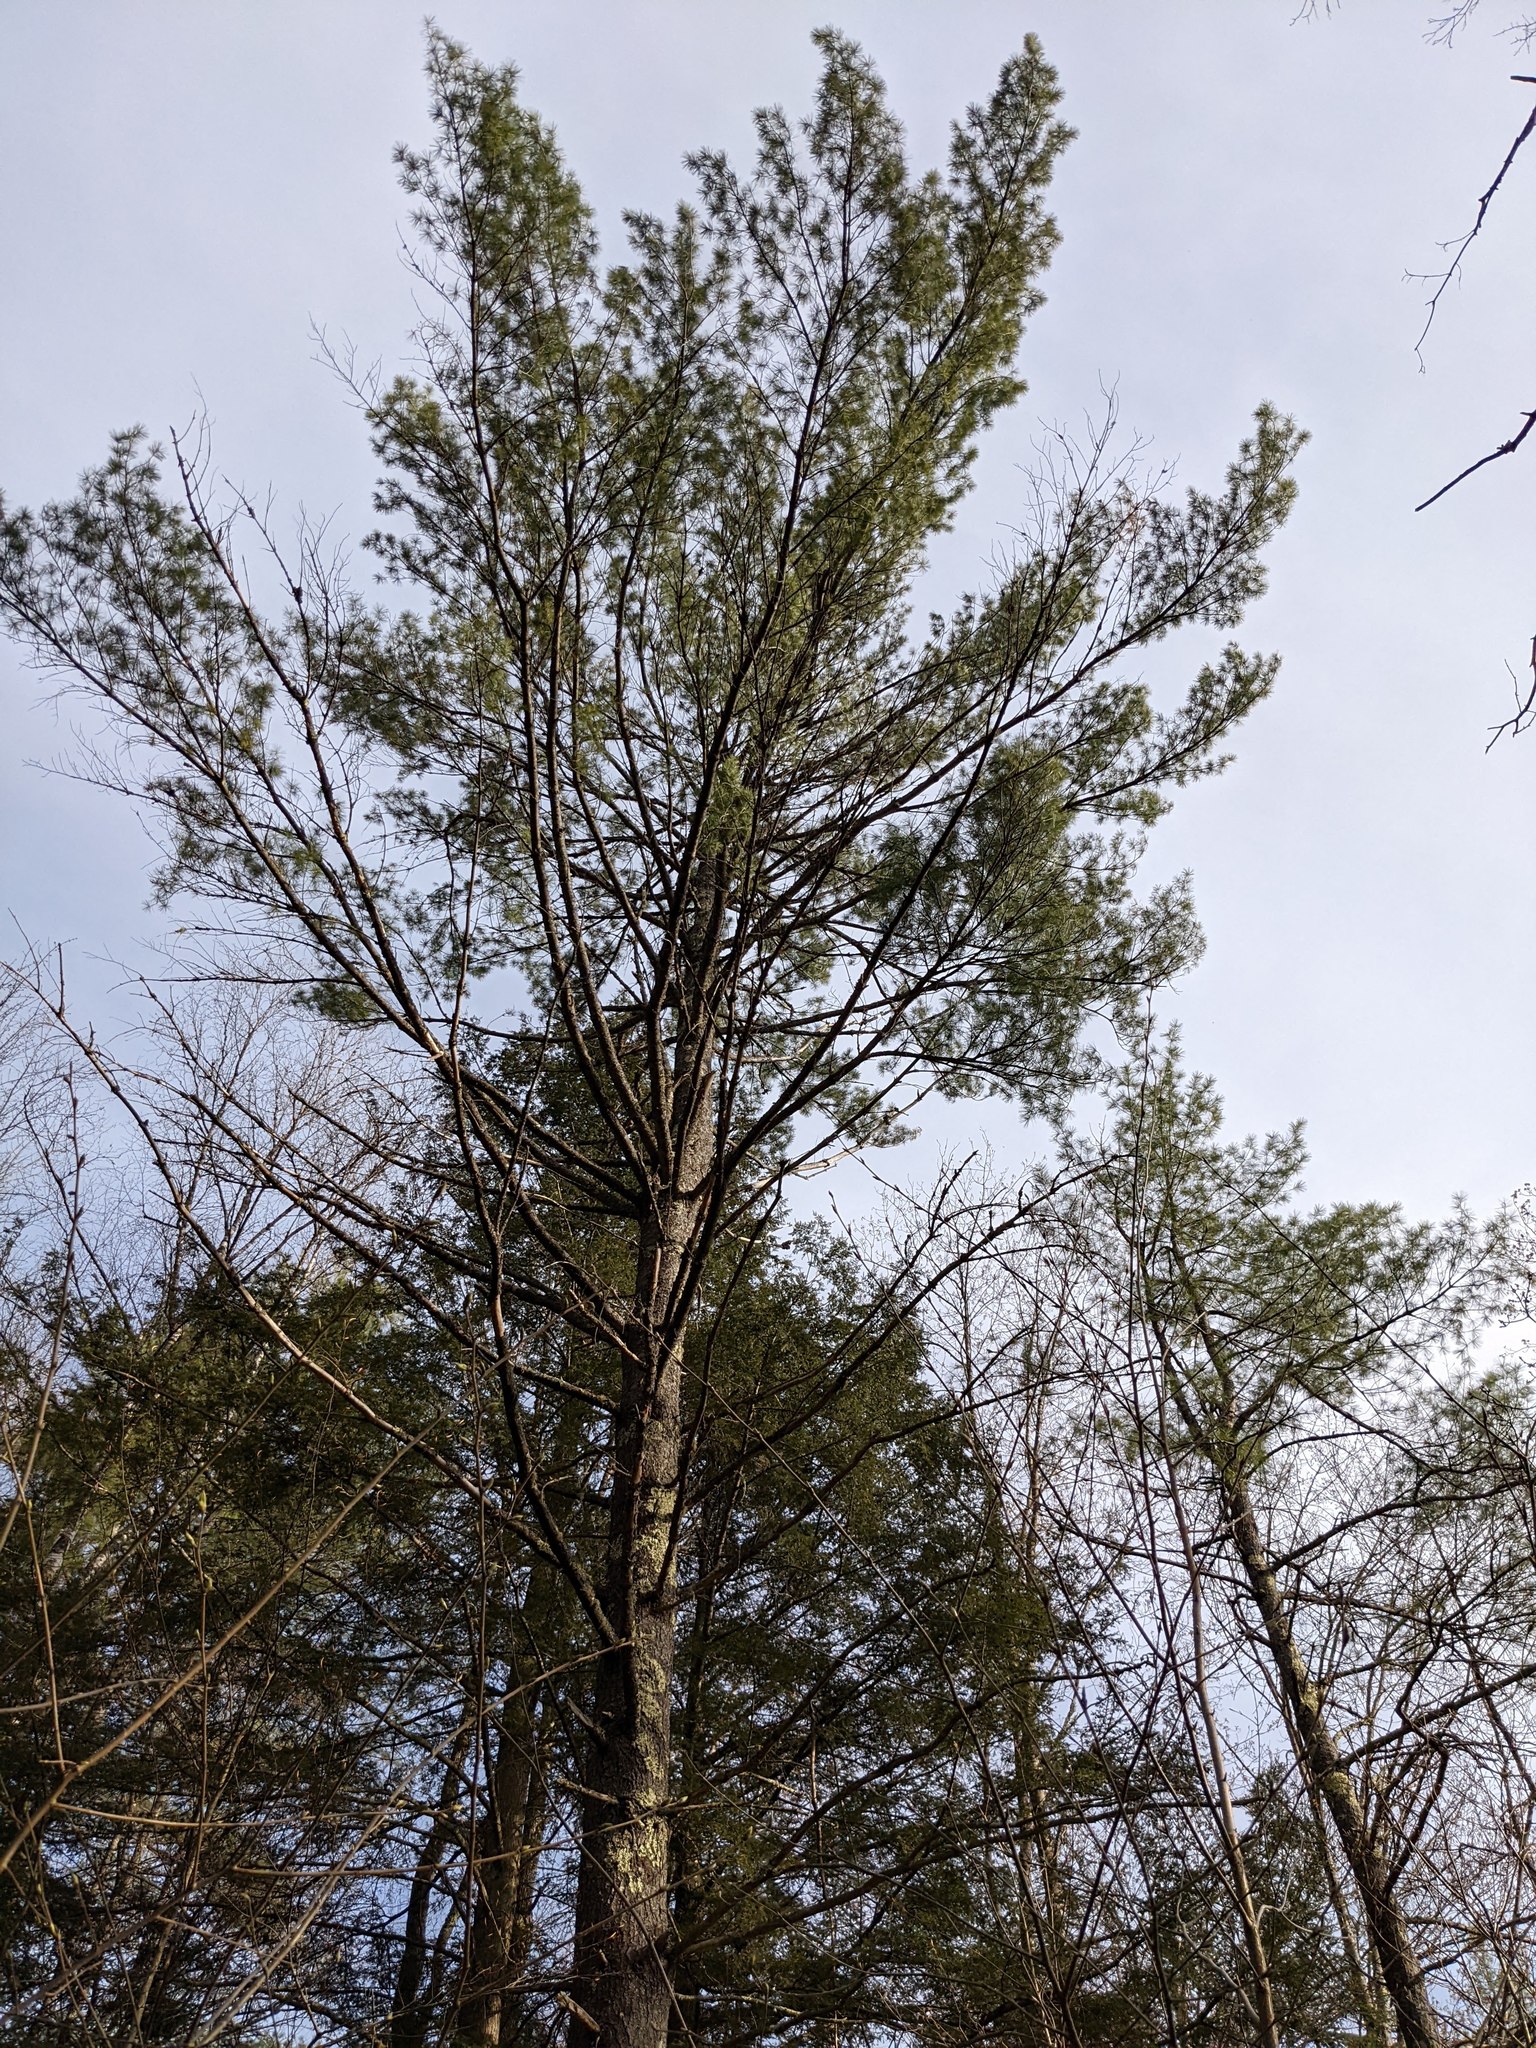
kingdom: Plantae
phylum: Tracheophyta
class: Pinopsida
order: Pinales
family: Pinaceae
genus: Pinus
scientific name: Pinus strobus
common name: Weymouth pine
